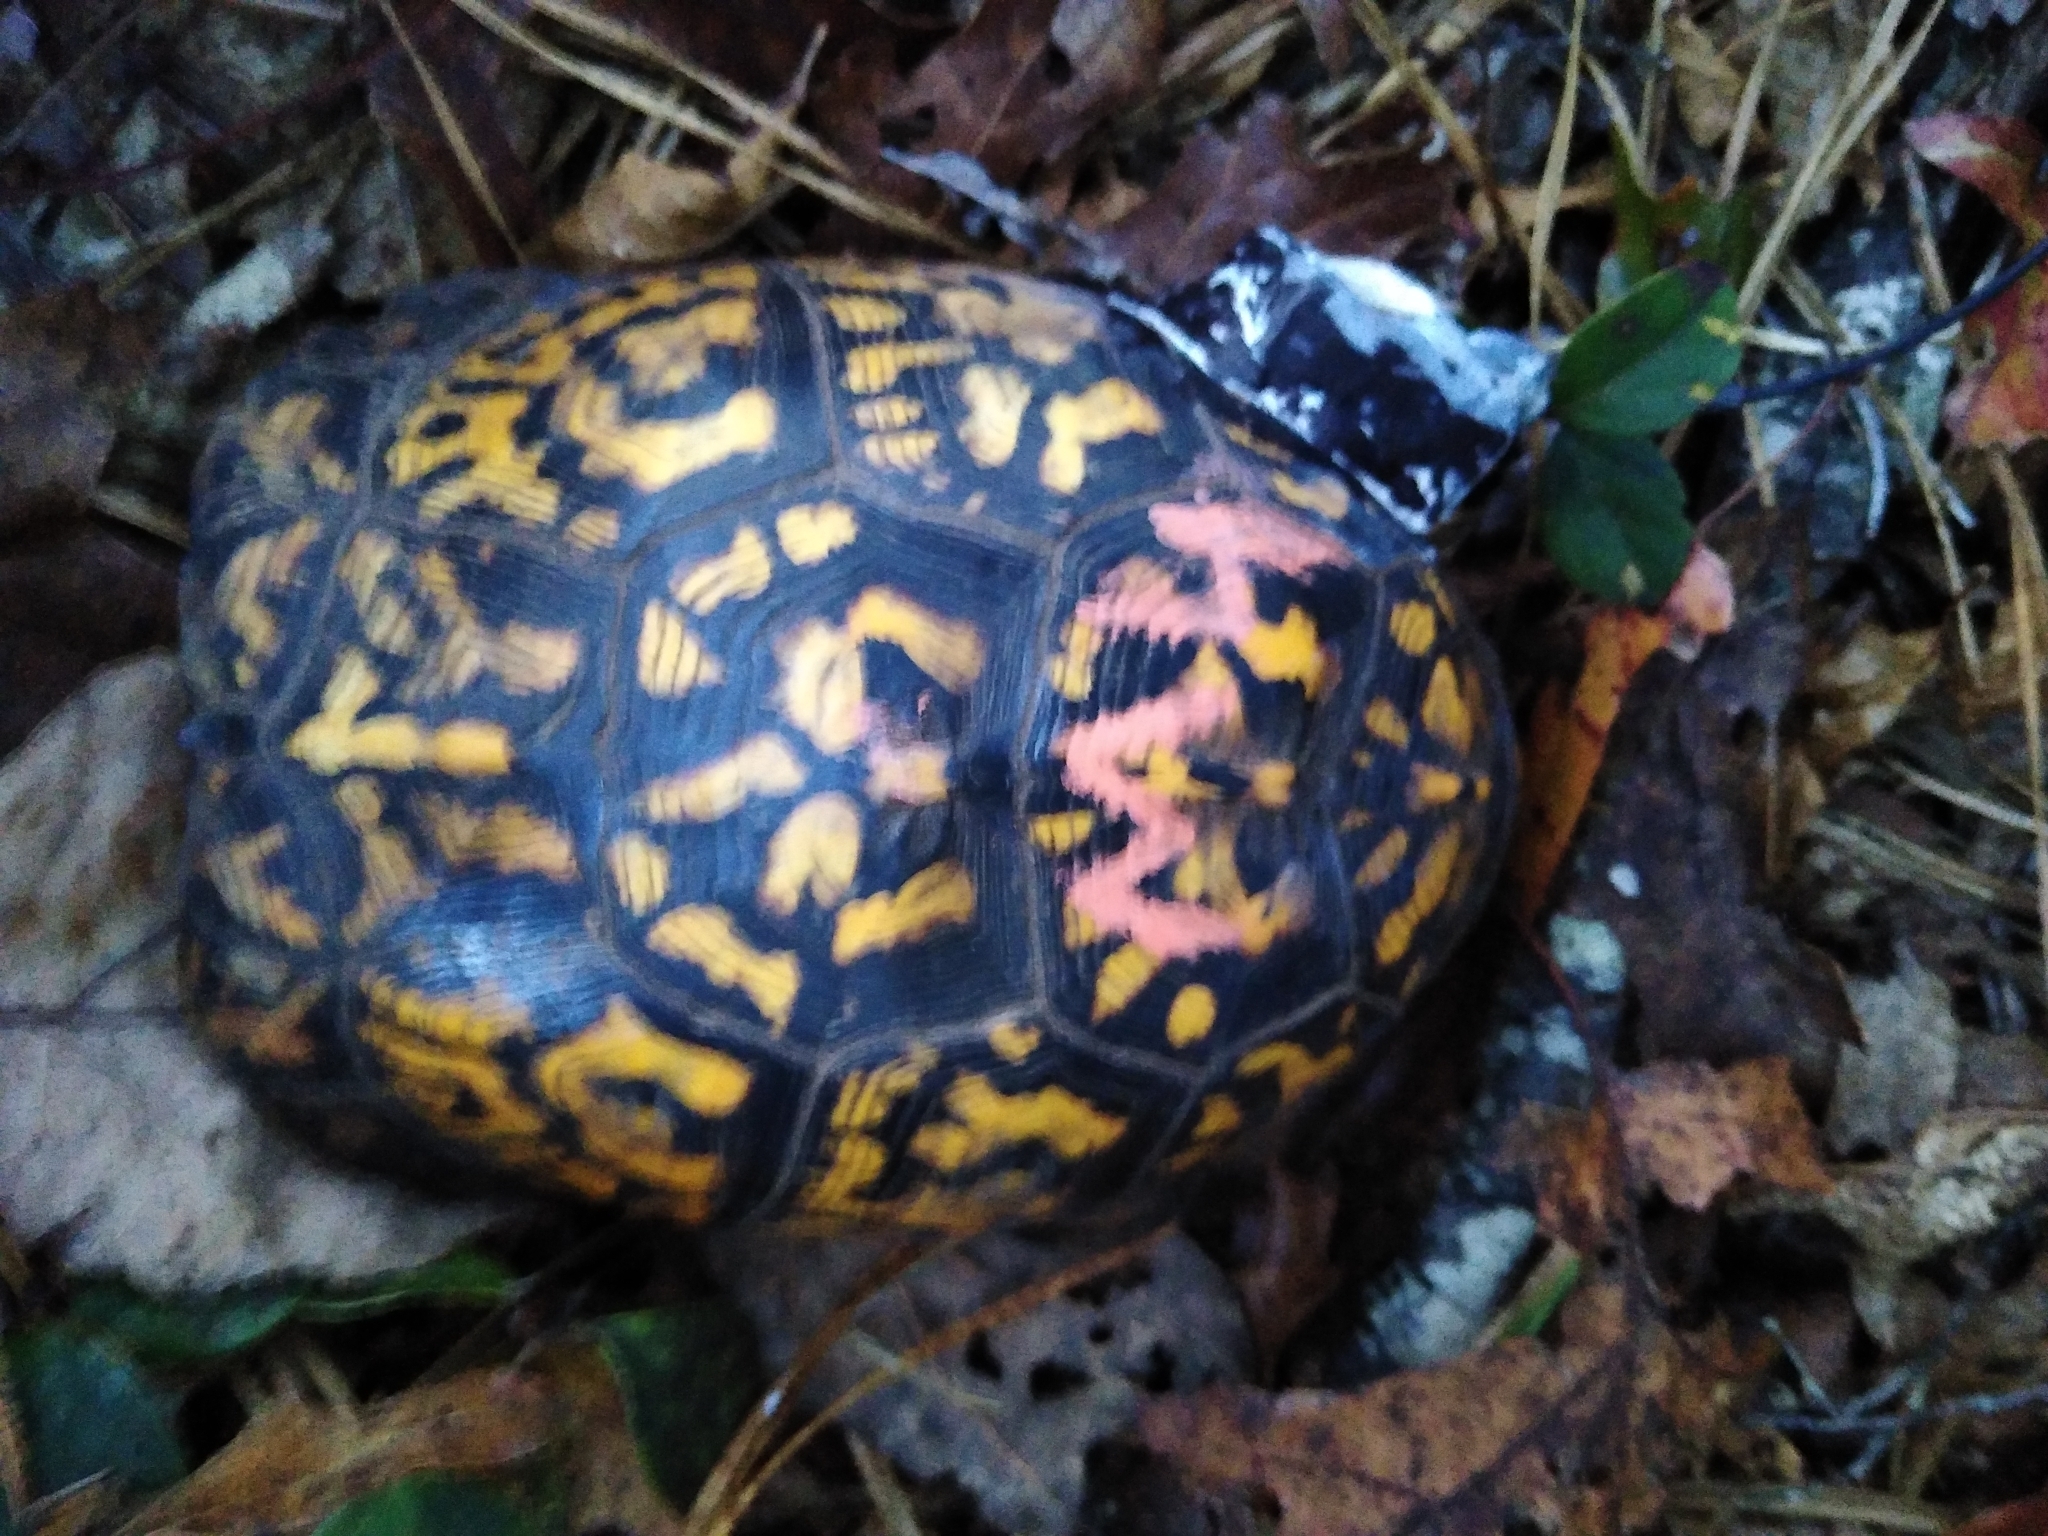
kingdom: Animalia
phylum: Chordata
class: Testudines
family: Emydidae
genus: Terrapene
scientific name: Terrapene carolina
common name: Common box turtle
